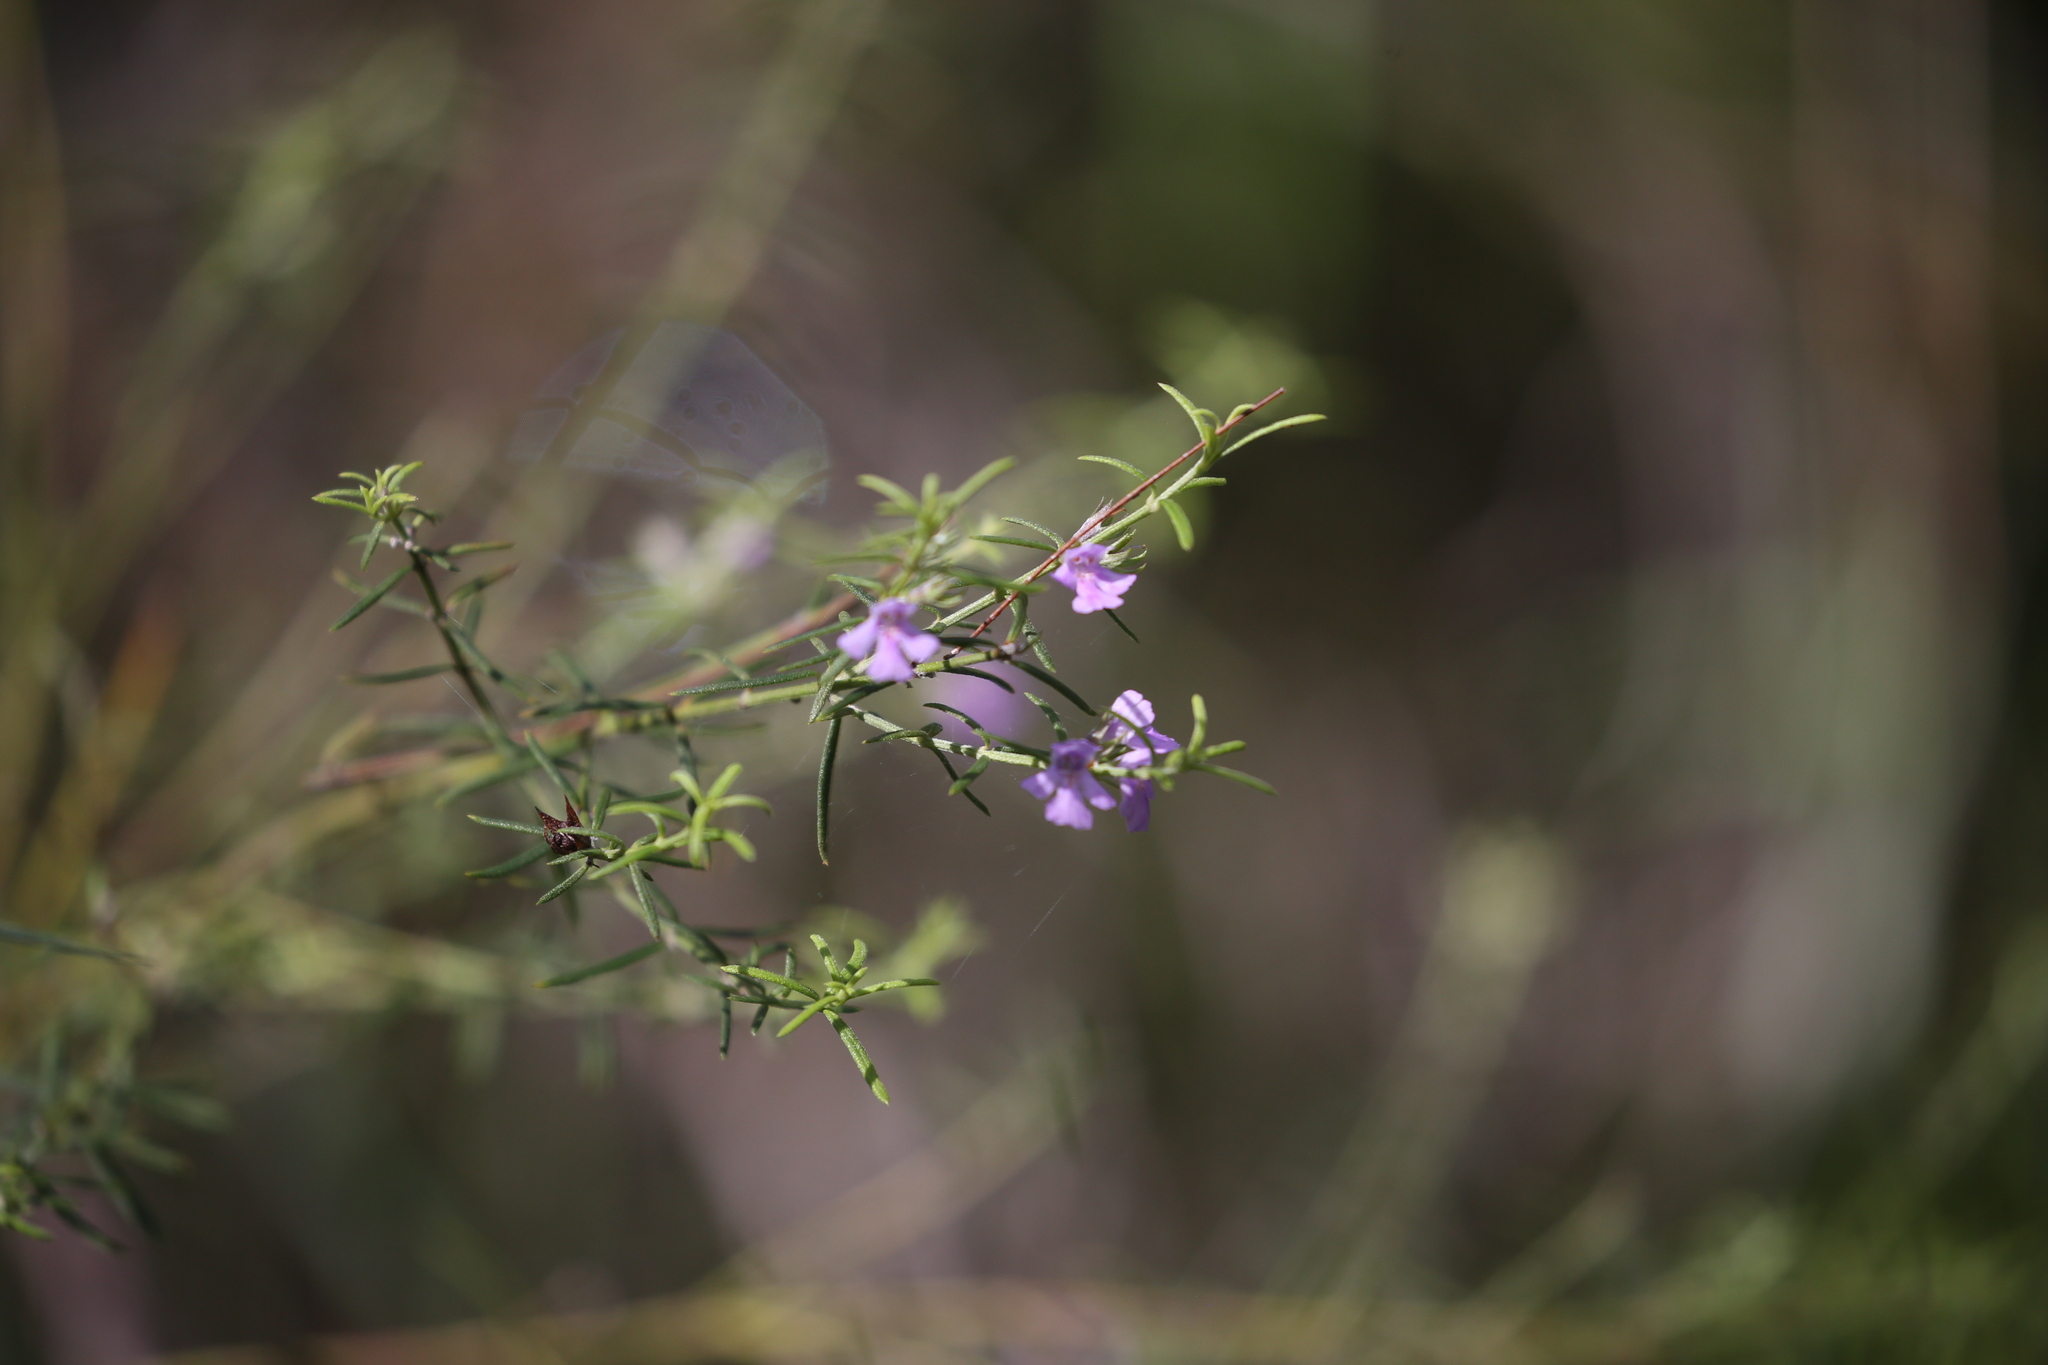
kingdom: Plantae
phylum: Tracheophyta
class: Magnoliopsida
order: Lamiales
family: Lamiaceae
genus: Westringia
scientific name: Westringia eremicola
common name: Slender western-rosemary
